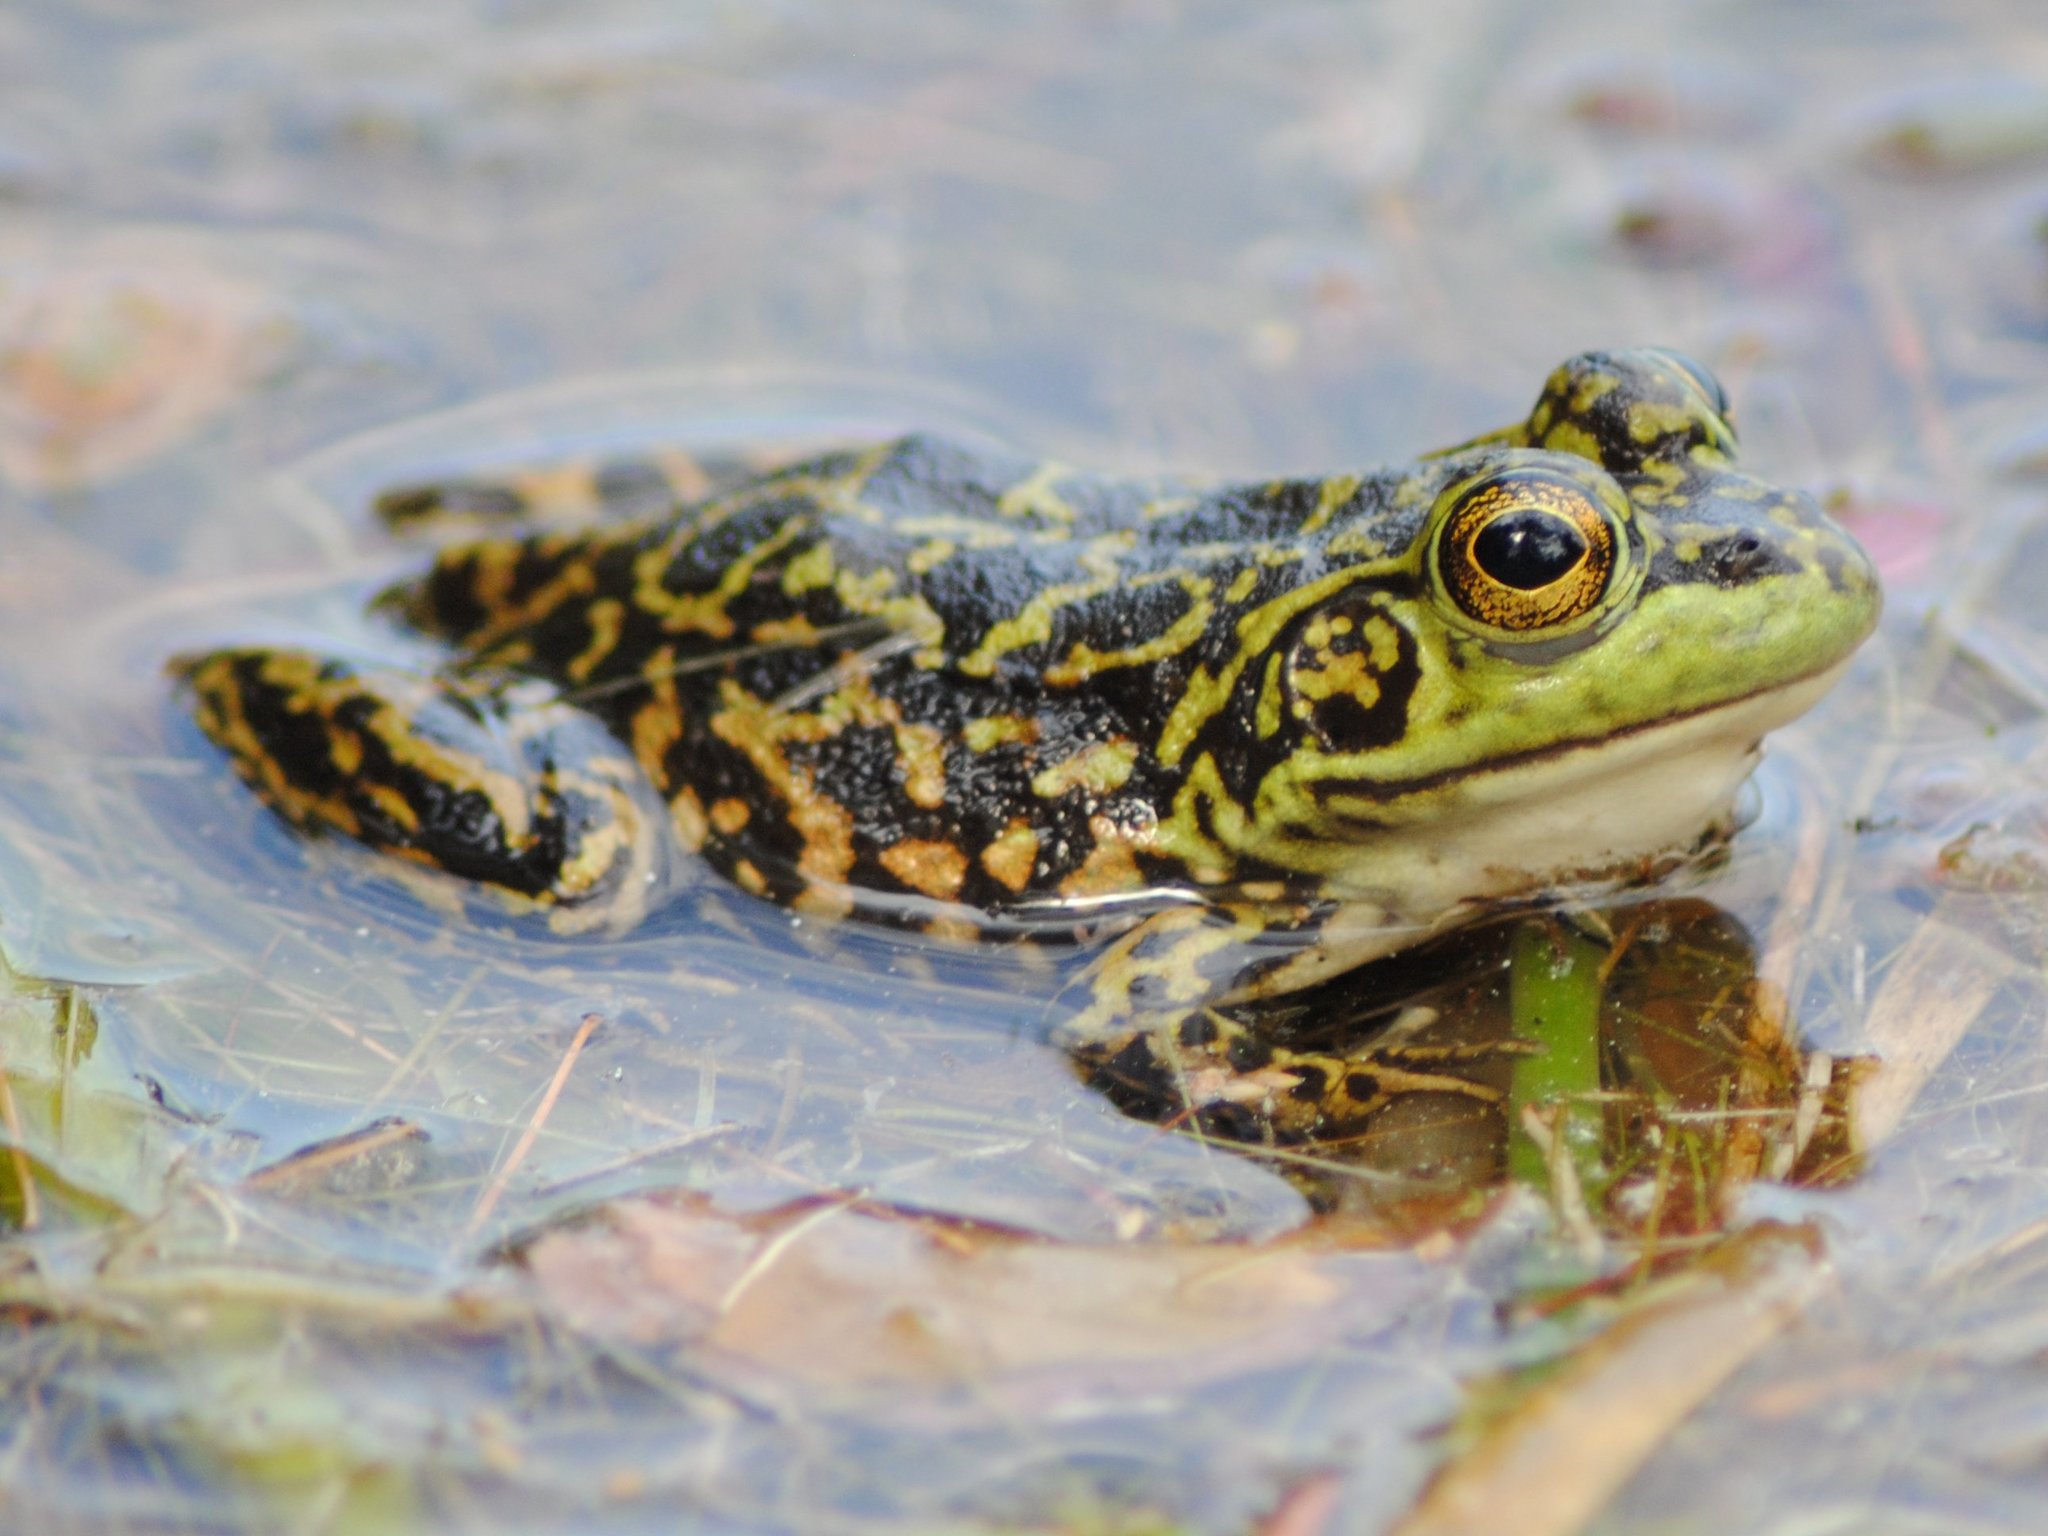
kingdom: Animalia
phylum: Chordata
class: Amphibia
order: Anura
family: Ranidae
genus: Lithobates
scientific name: Lithobates septentrionalis
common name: Mink frog
